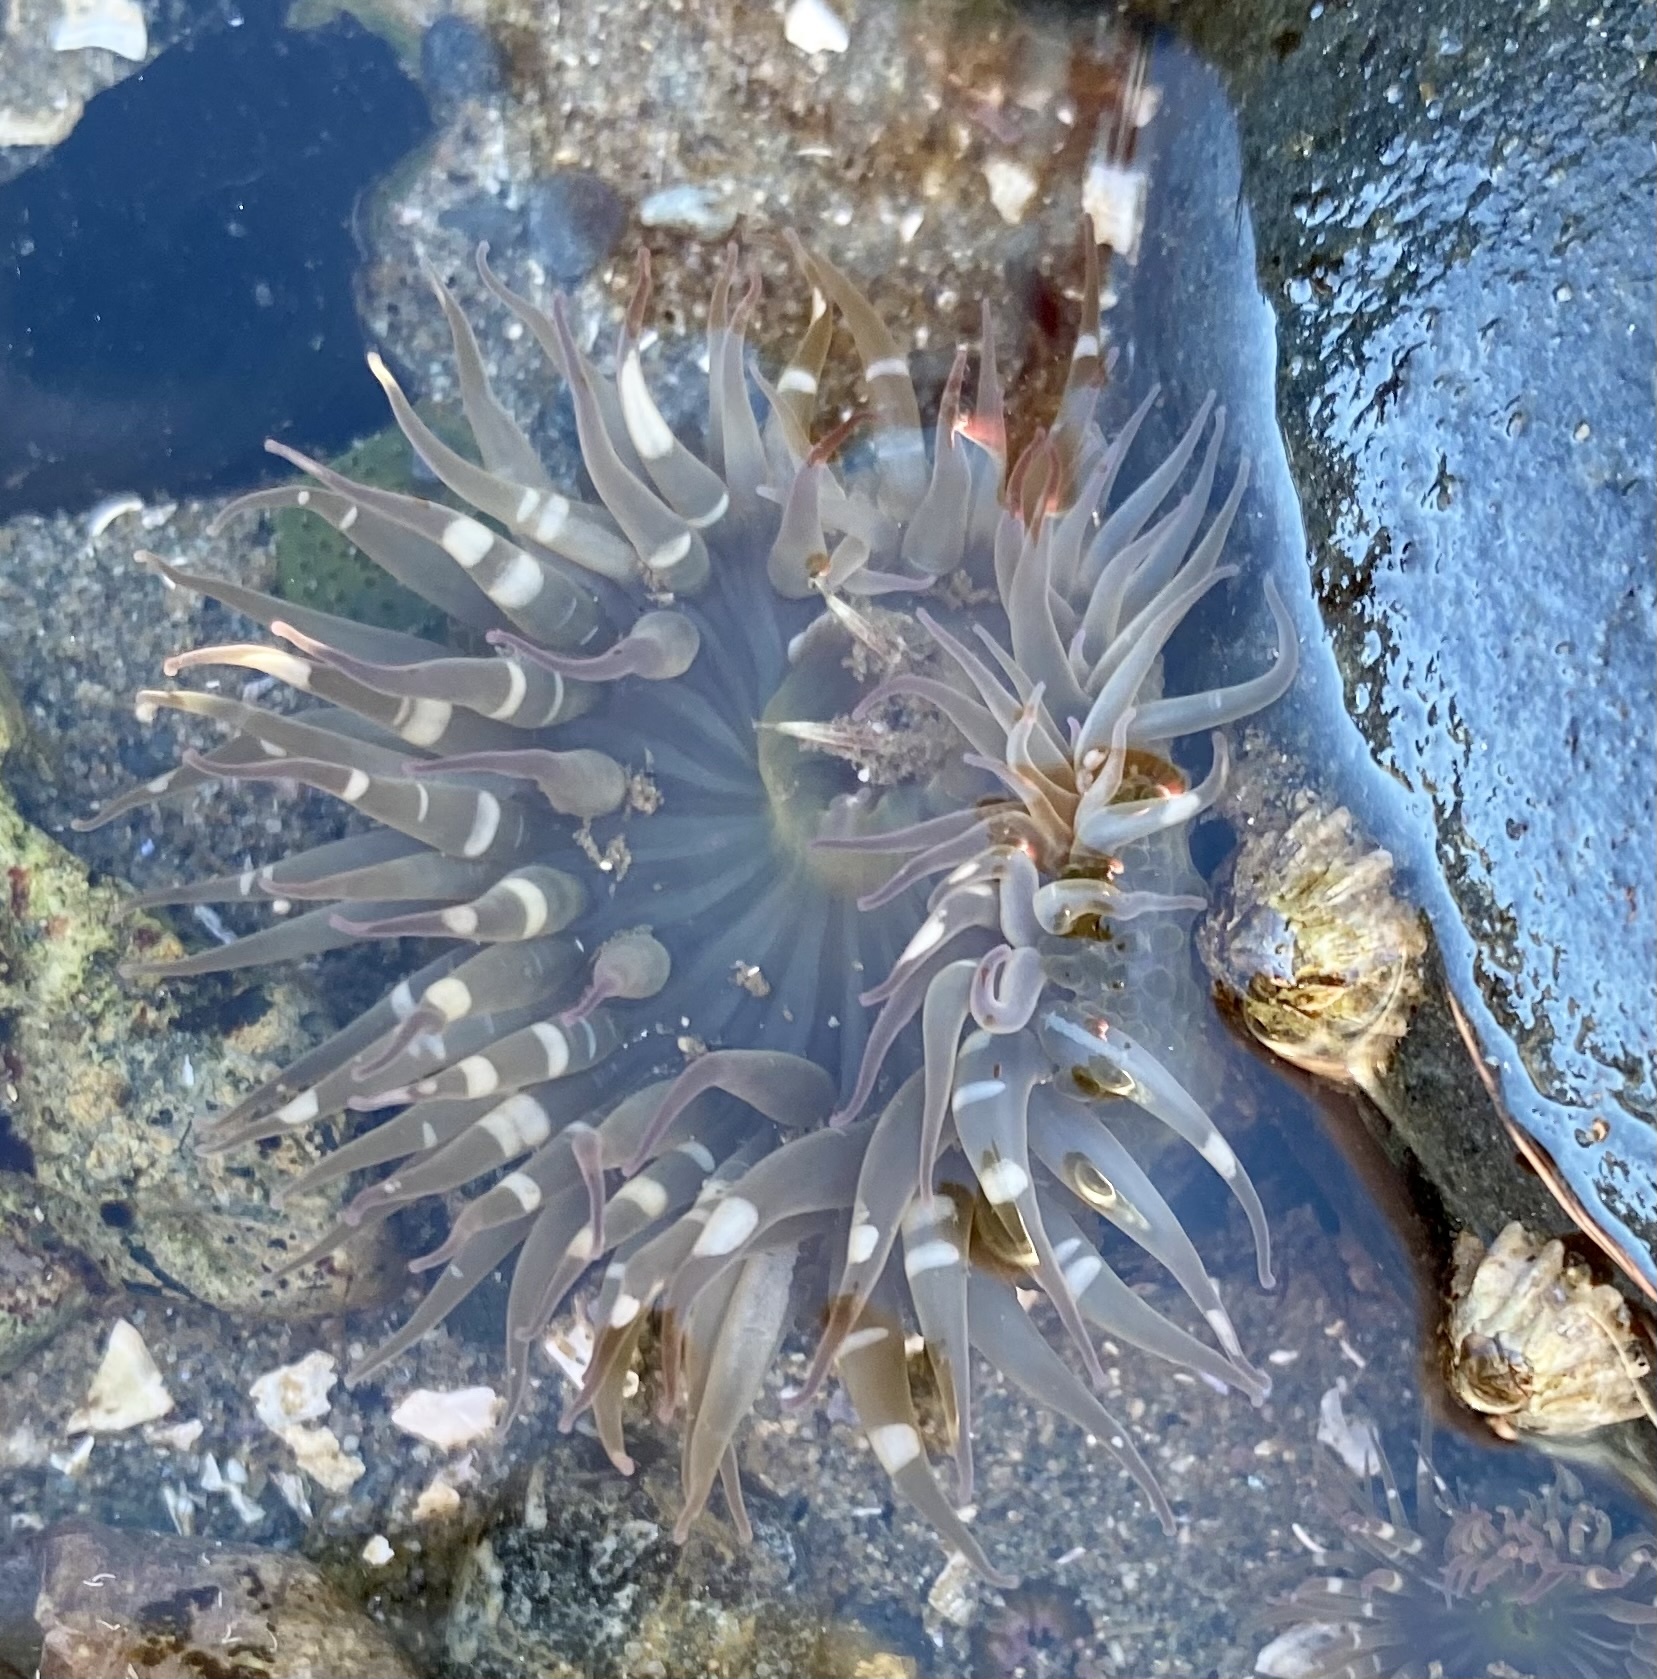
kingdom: Animalia
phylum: Cnidaria
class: Anthozoa
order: Actiniaria
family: Actiniidae
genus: Anthopleura
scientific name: Anthopleura elegantissima
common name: Clonal anemone
